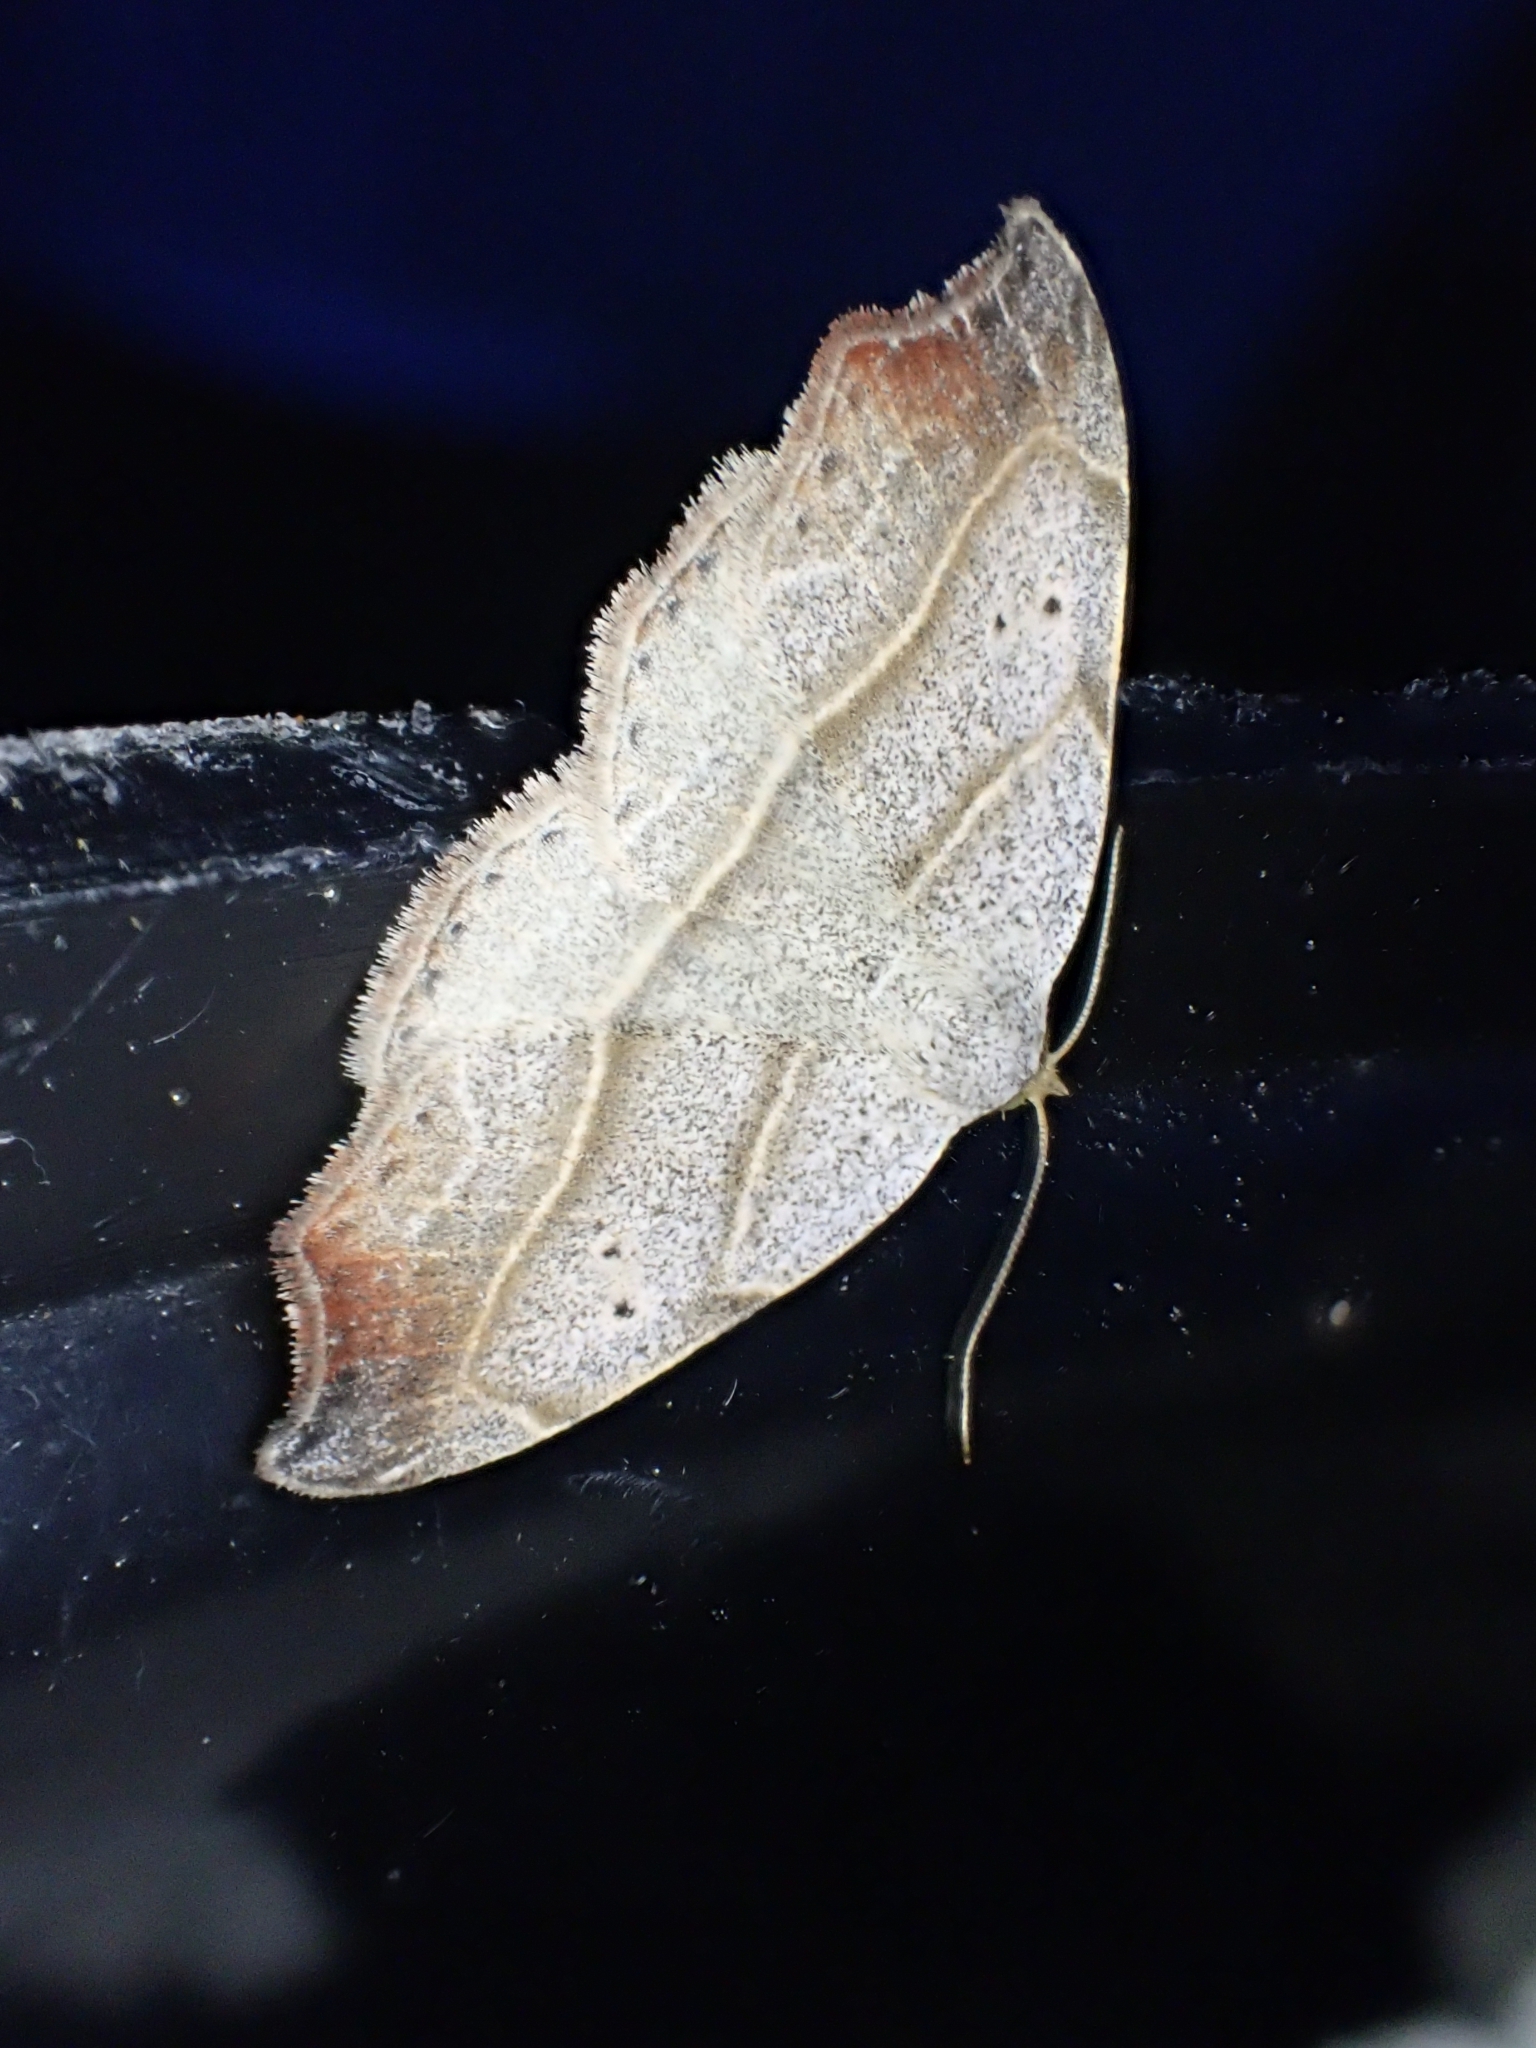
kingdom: Animalia
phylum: Arthropoda
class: Insecta
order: Lepidoptera
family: Erebidae
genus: Laspeyria
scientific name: Laspeyria flexula
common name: Beautiful hook-tip
